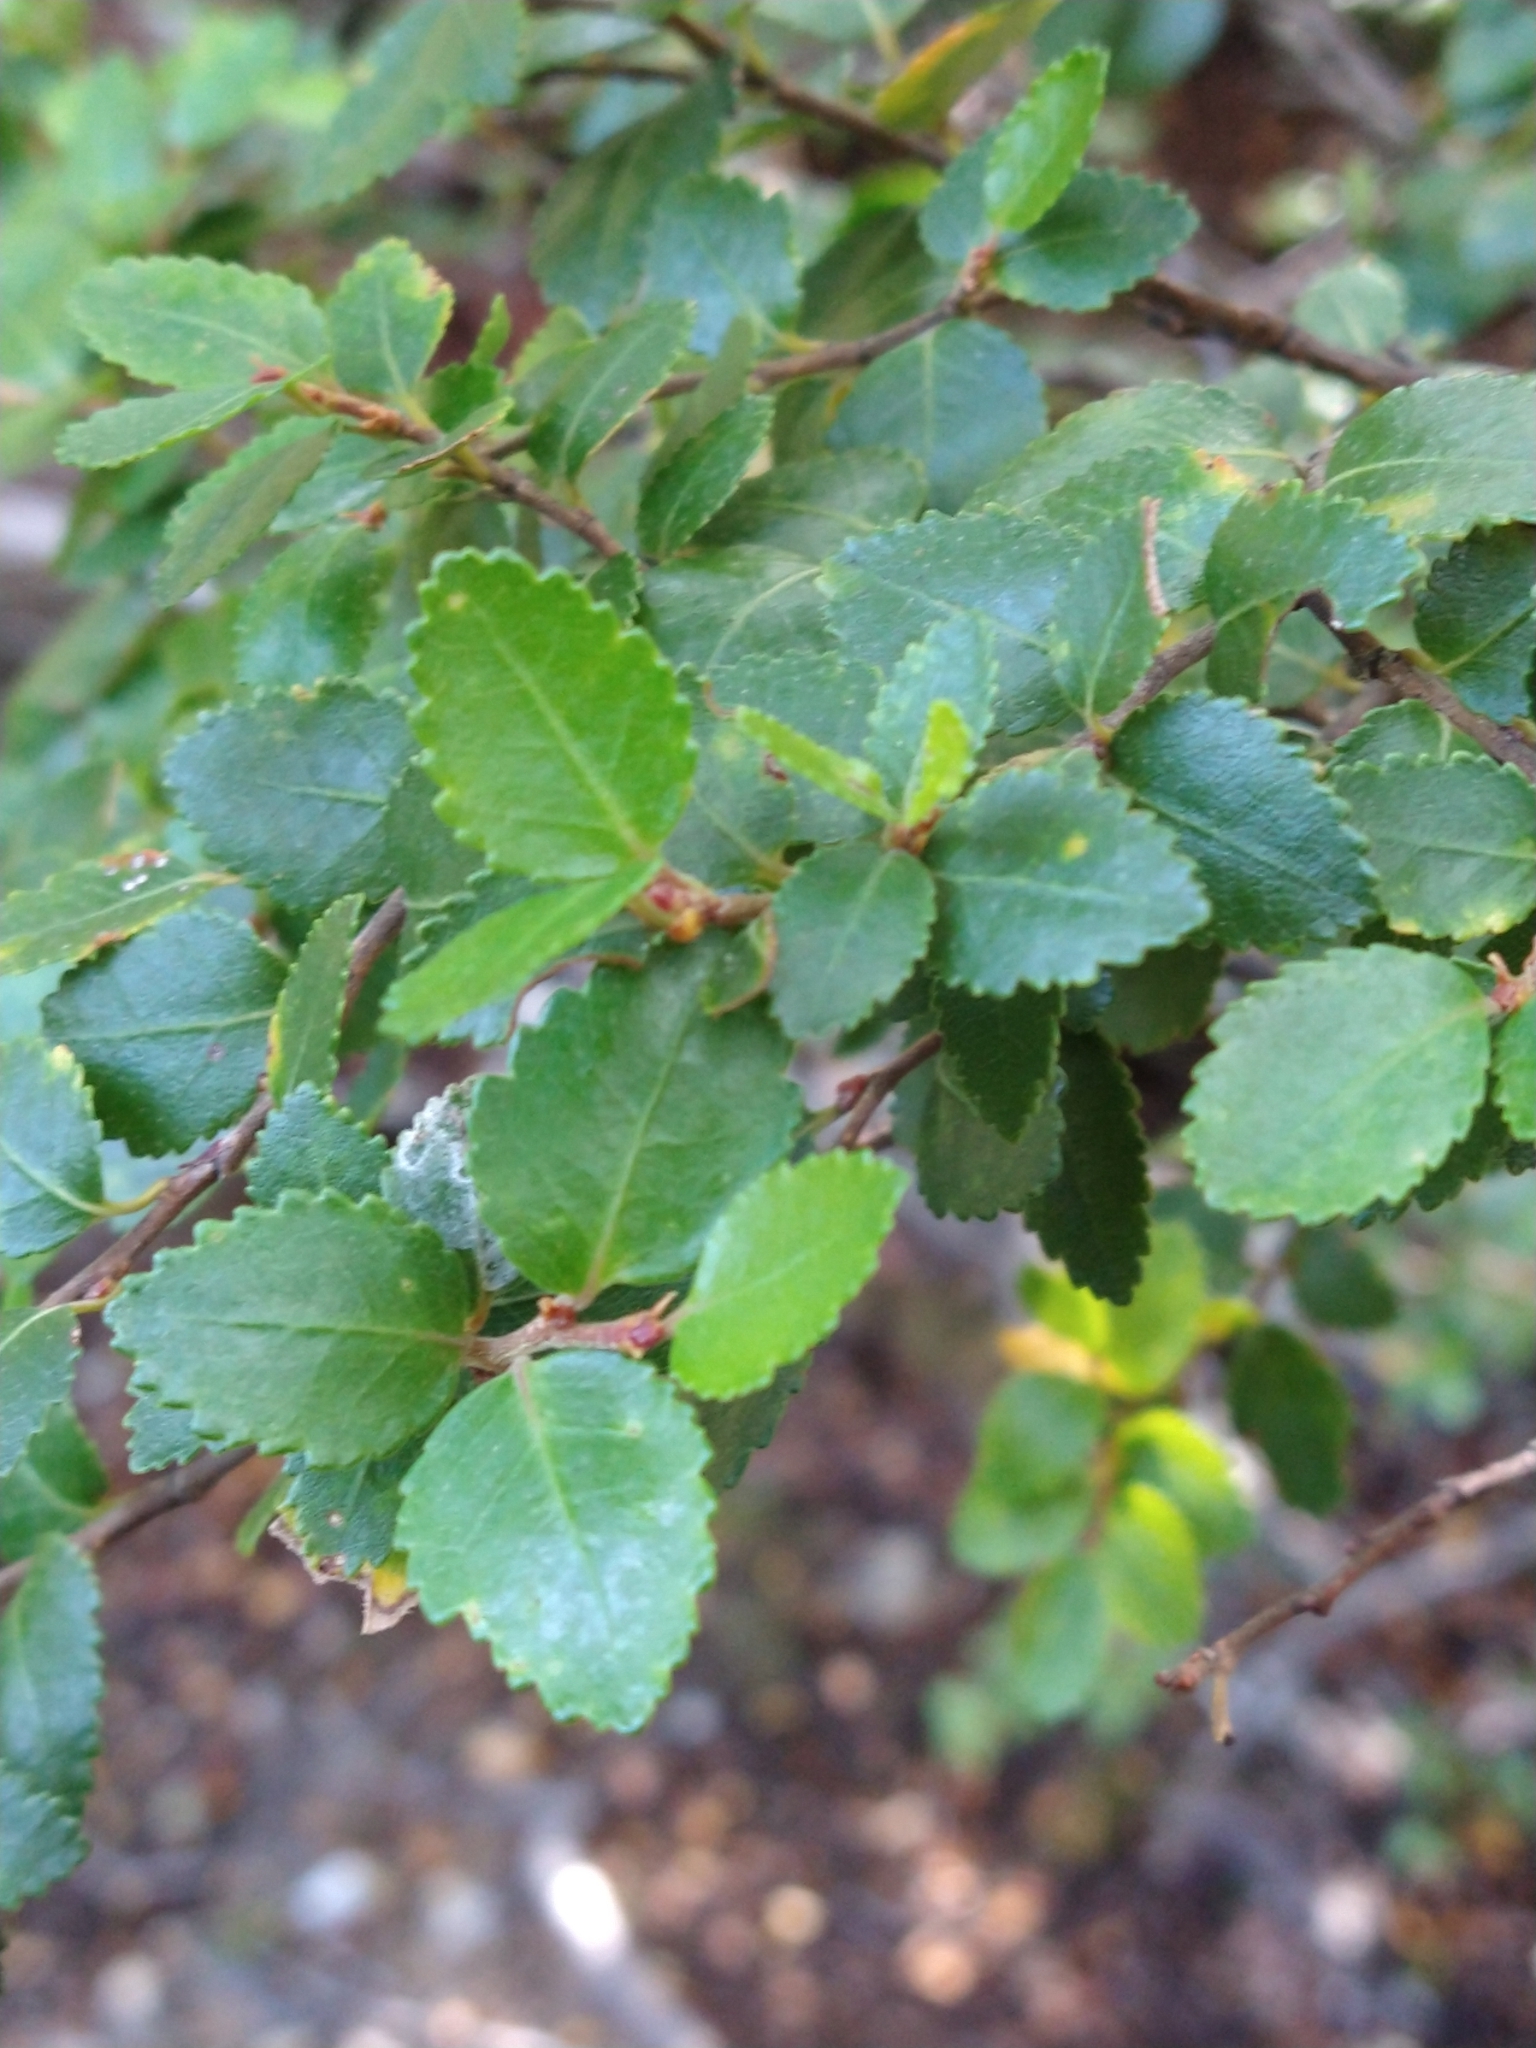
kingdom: Plantae
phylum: Tracheophyta
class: Magnoliopsida
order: Fagales
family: Nothofagaceae
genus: Nothofagus
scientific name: Nothofagus betuloides
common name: Magellan's beech
